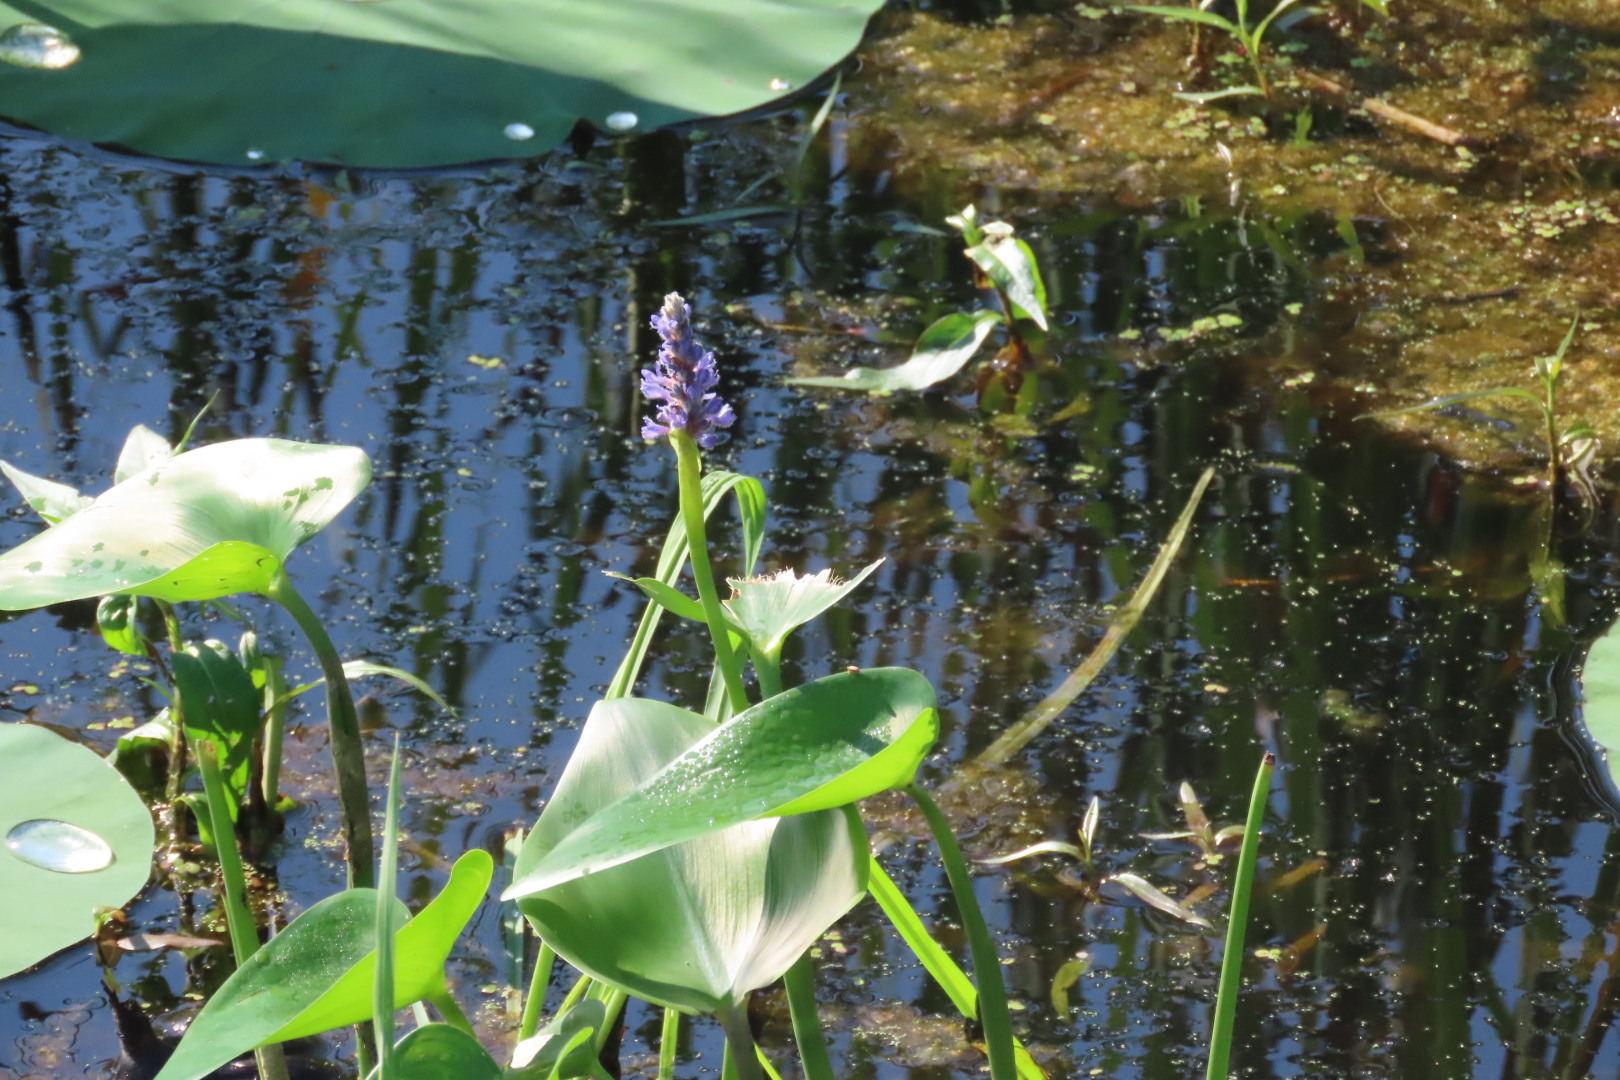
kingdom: Plantae
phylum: Tracheophyta
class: Liliopsida
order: Commelinales
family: Pontederiaceae
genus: Pontederia
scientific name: Pontederia cordata
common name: Pickerelweed
